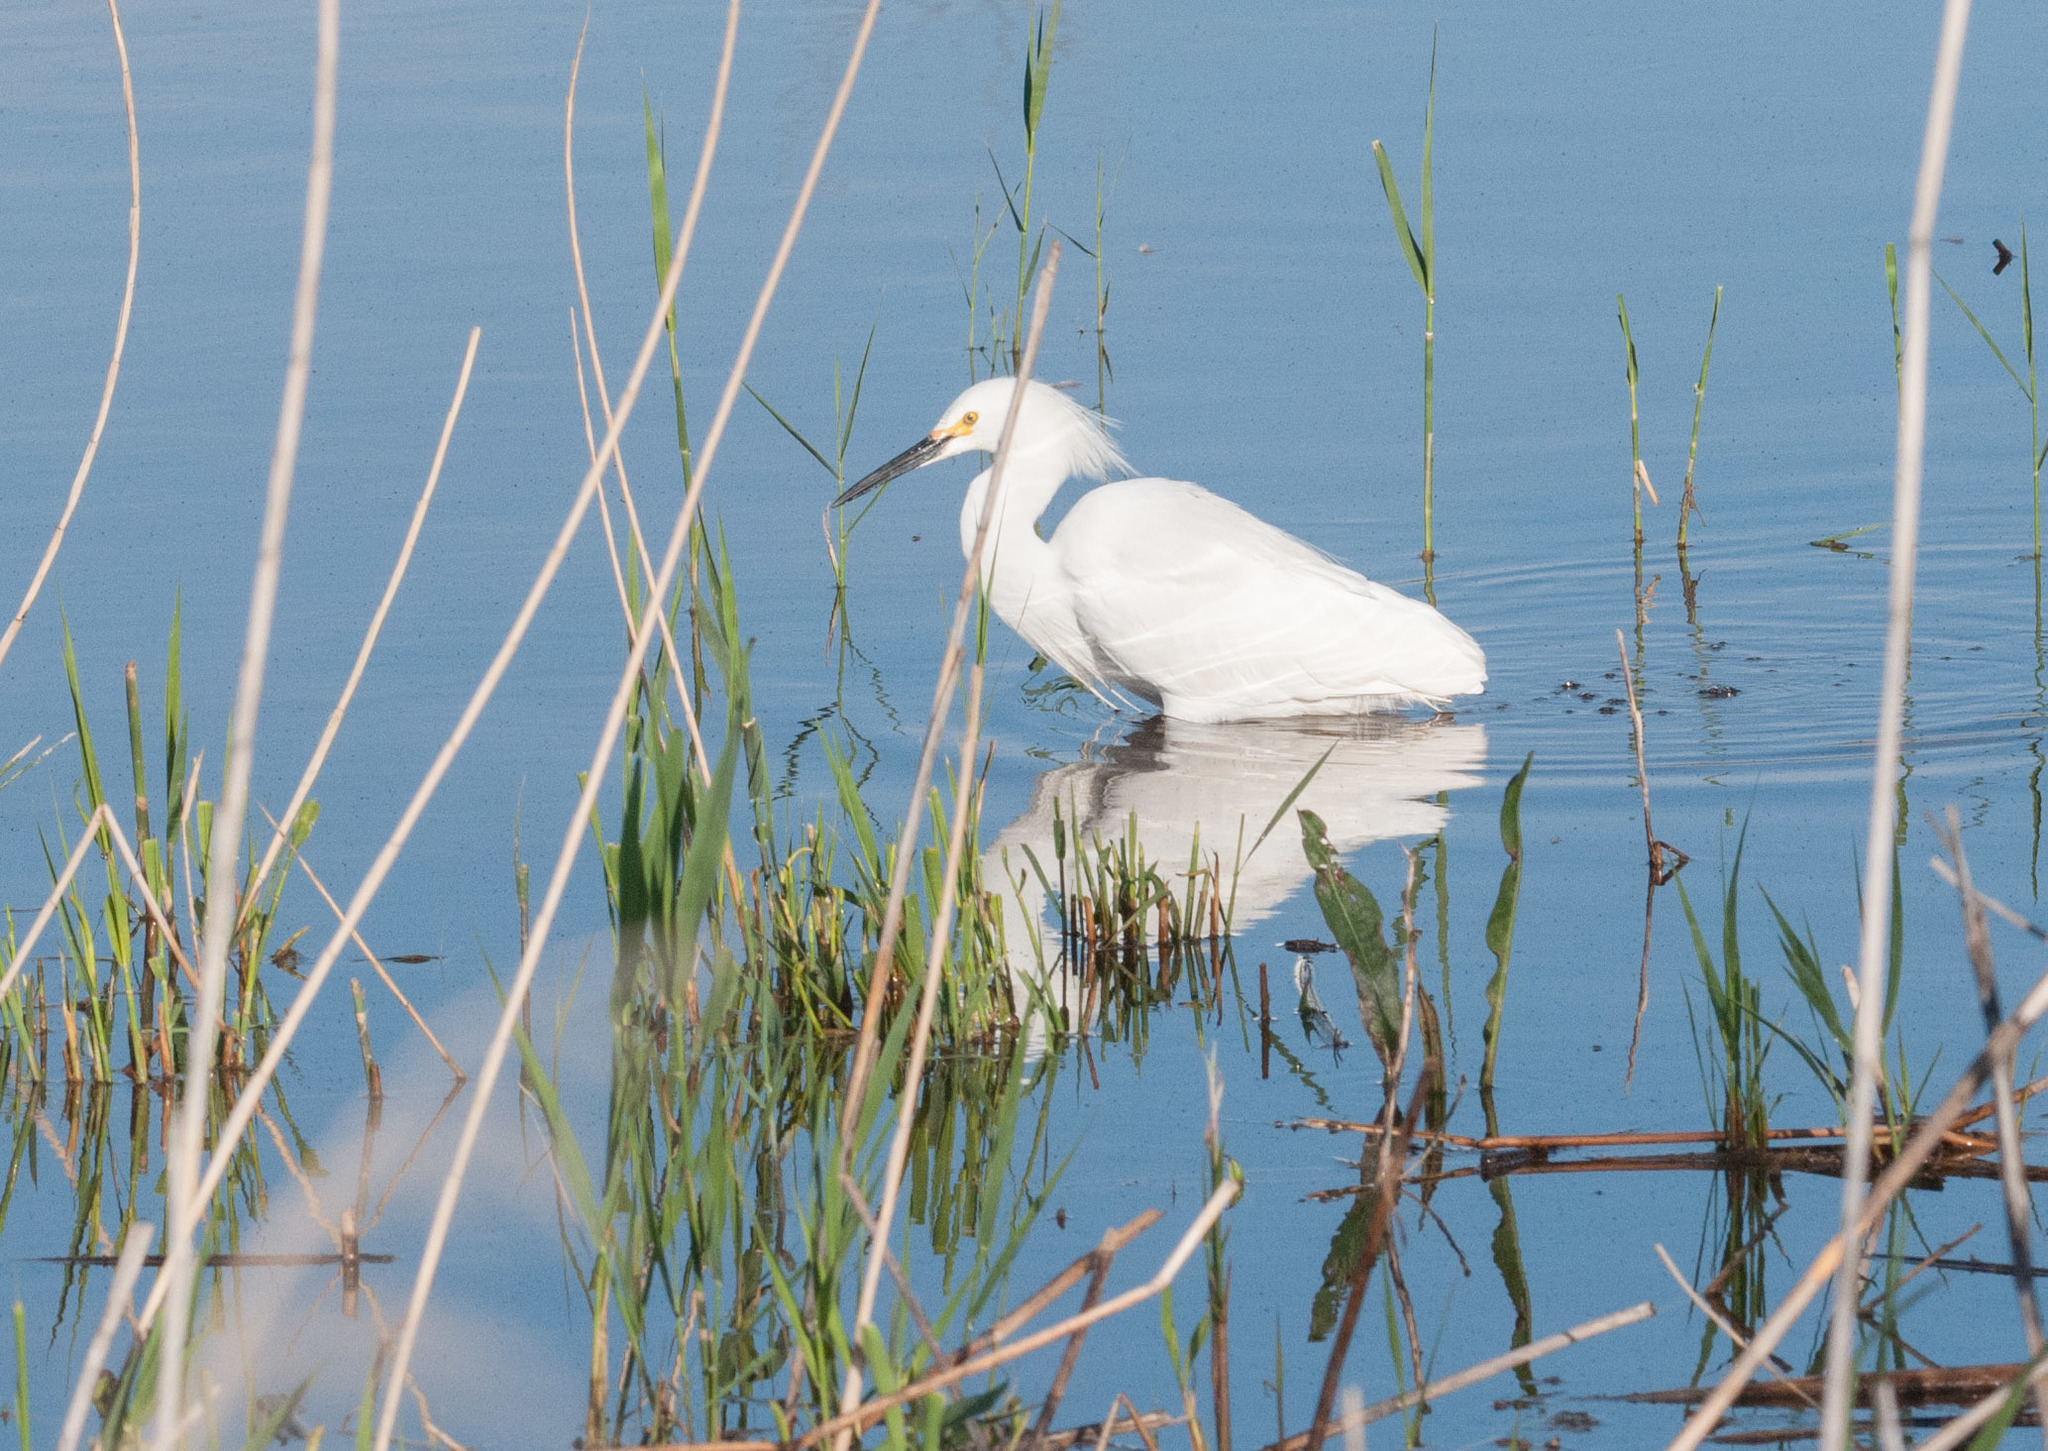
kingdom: Animalia
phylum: Chordata
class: Aves
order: Pelecaniformes
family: Ardeidae
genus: Egretta
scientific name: Egretta thula
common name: Snowy egret
